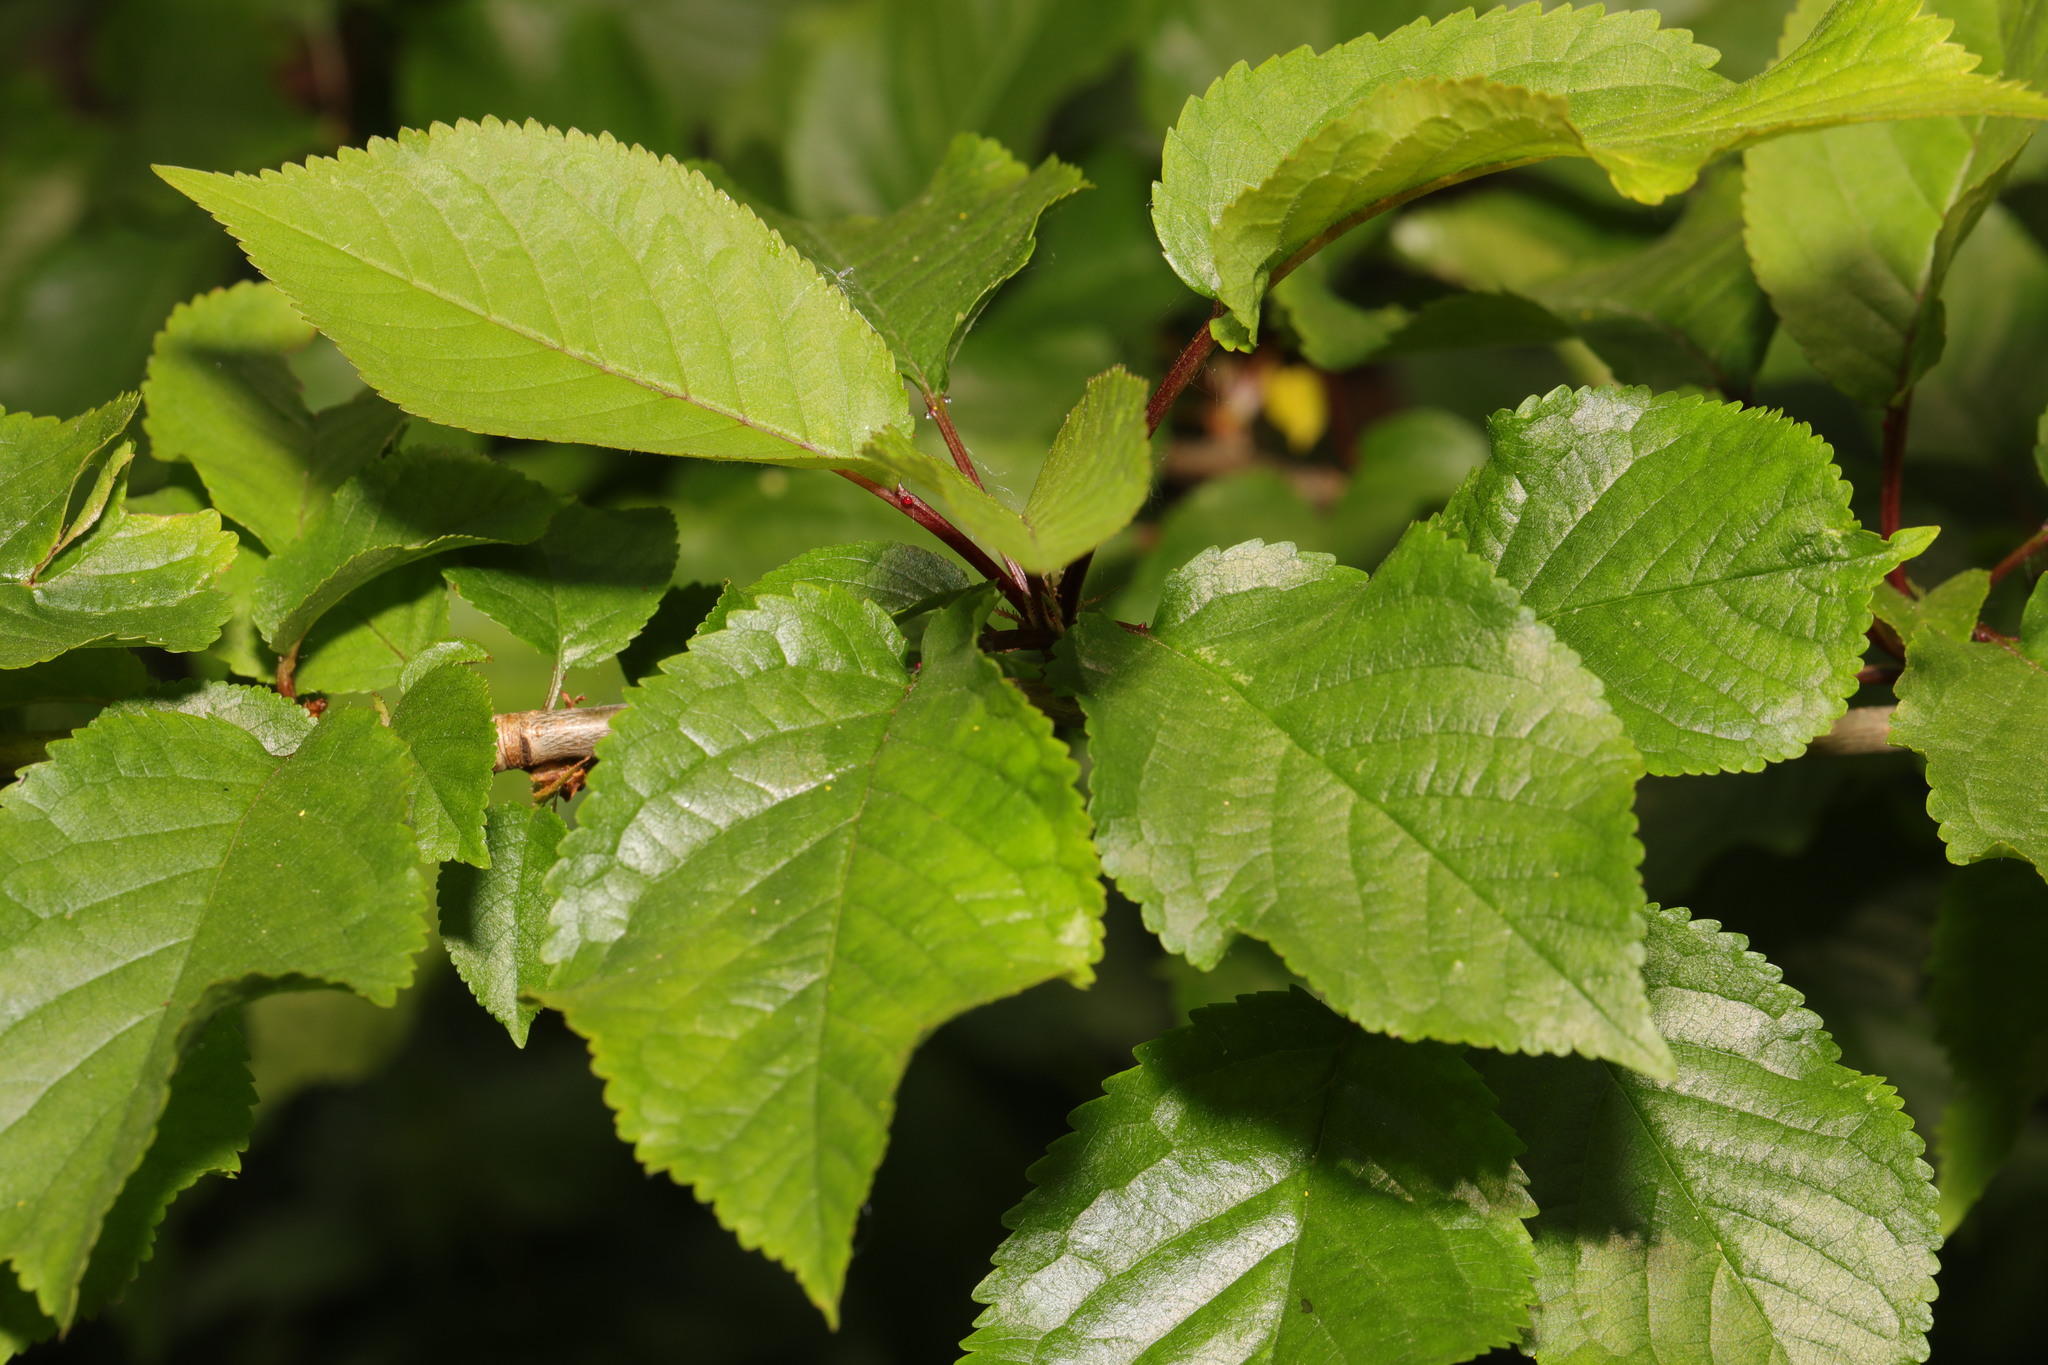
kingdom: Plantae
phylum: Tracheophyta
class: Magnoliopsida
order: Rosales
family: Rosaceae
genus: Prunus
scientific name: Prunus avium
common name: Sweet cherry
